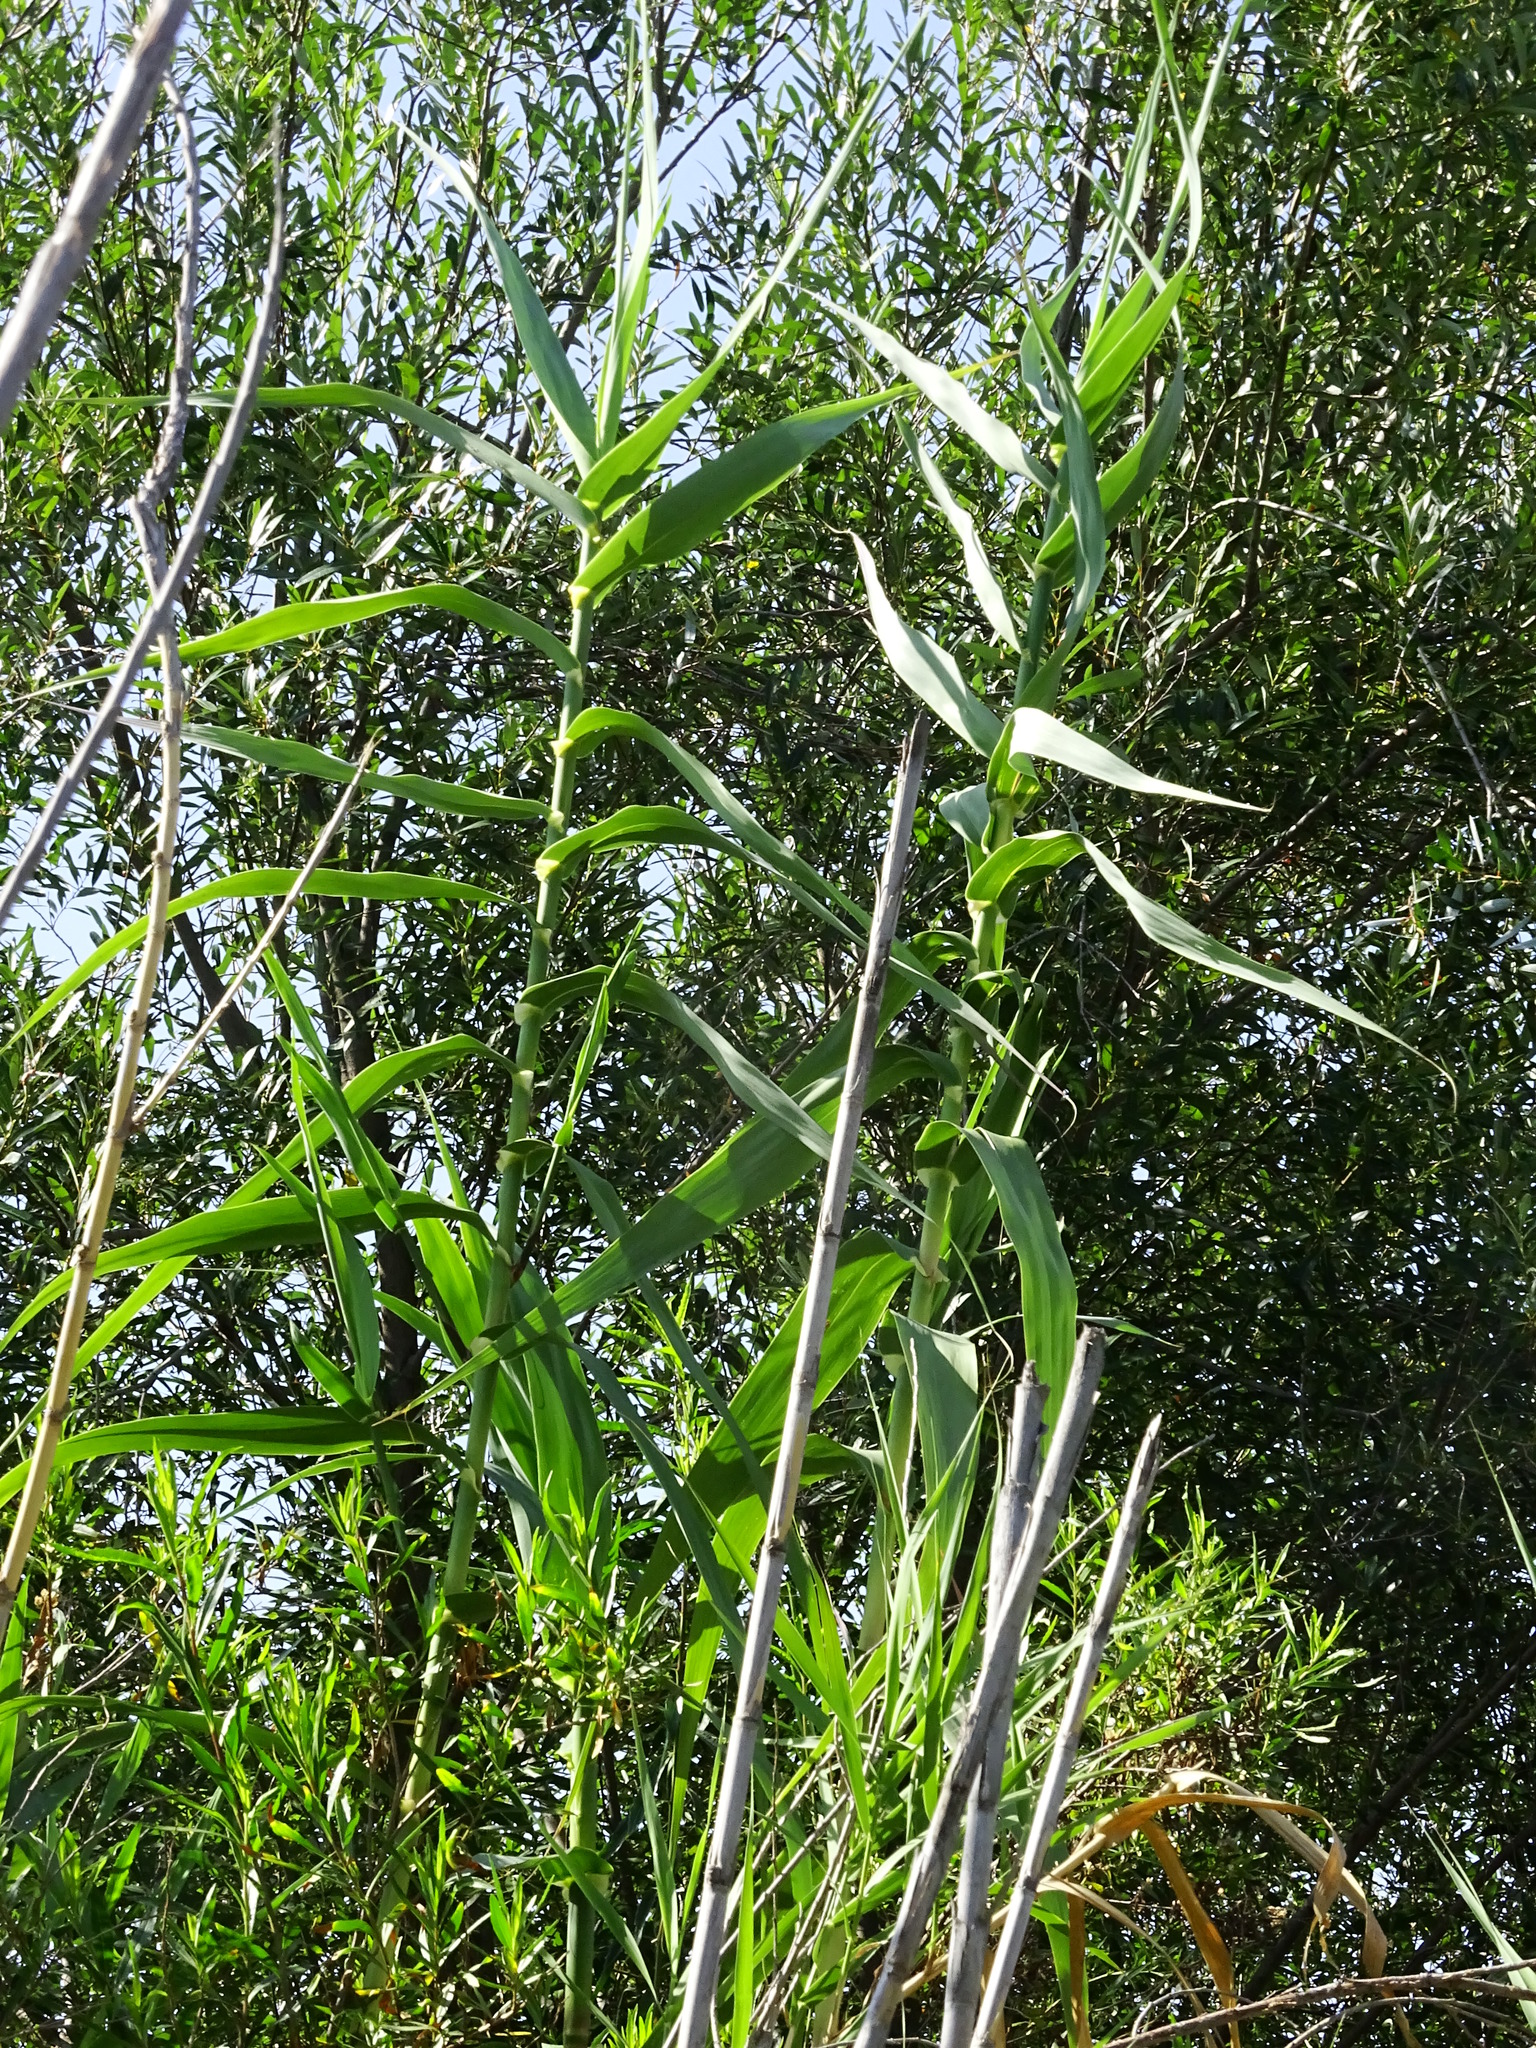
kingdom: Plantae
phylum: Tracheophyta
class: Liliopsida
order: Poales
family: Poaceae
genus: Arundo
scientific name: Arundo donax
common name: Giant reed
